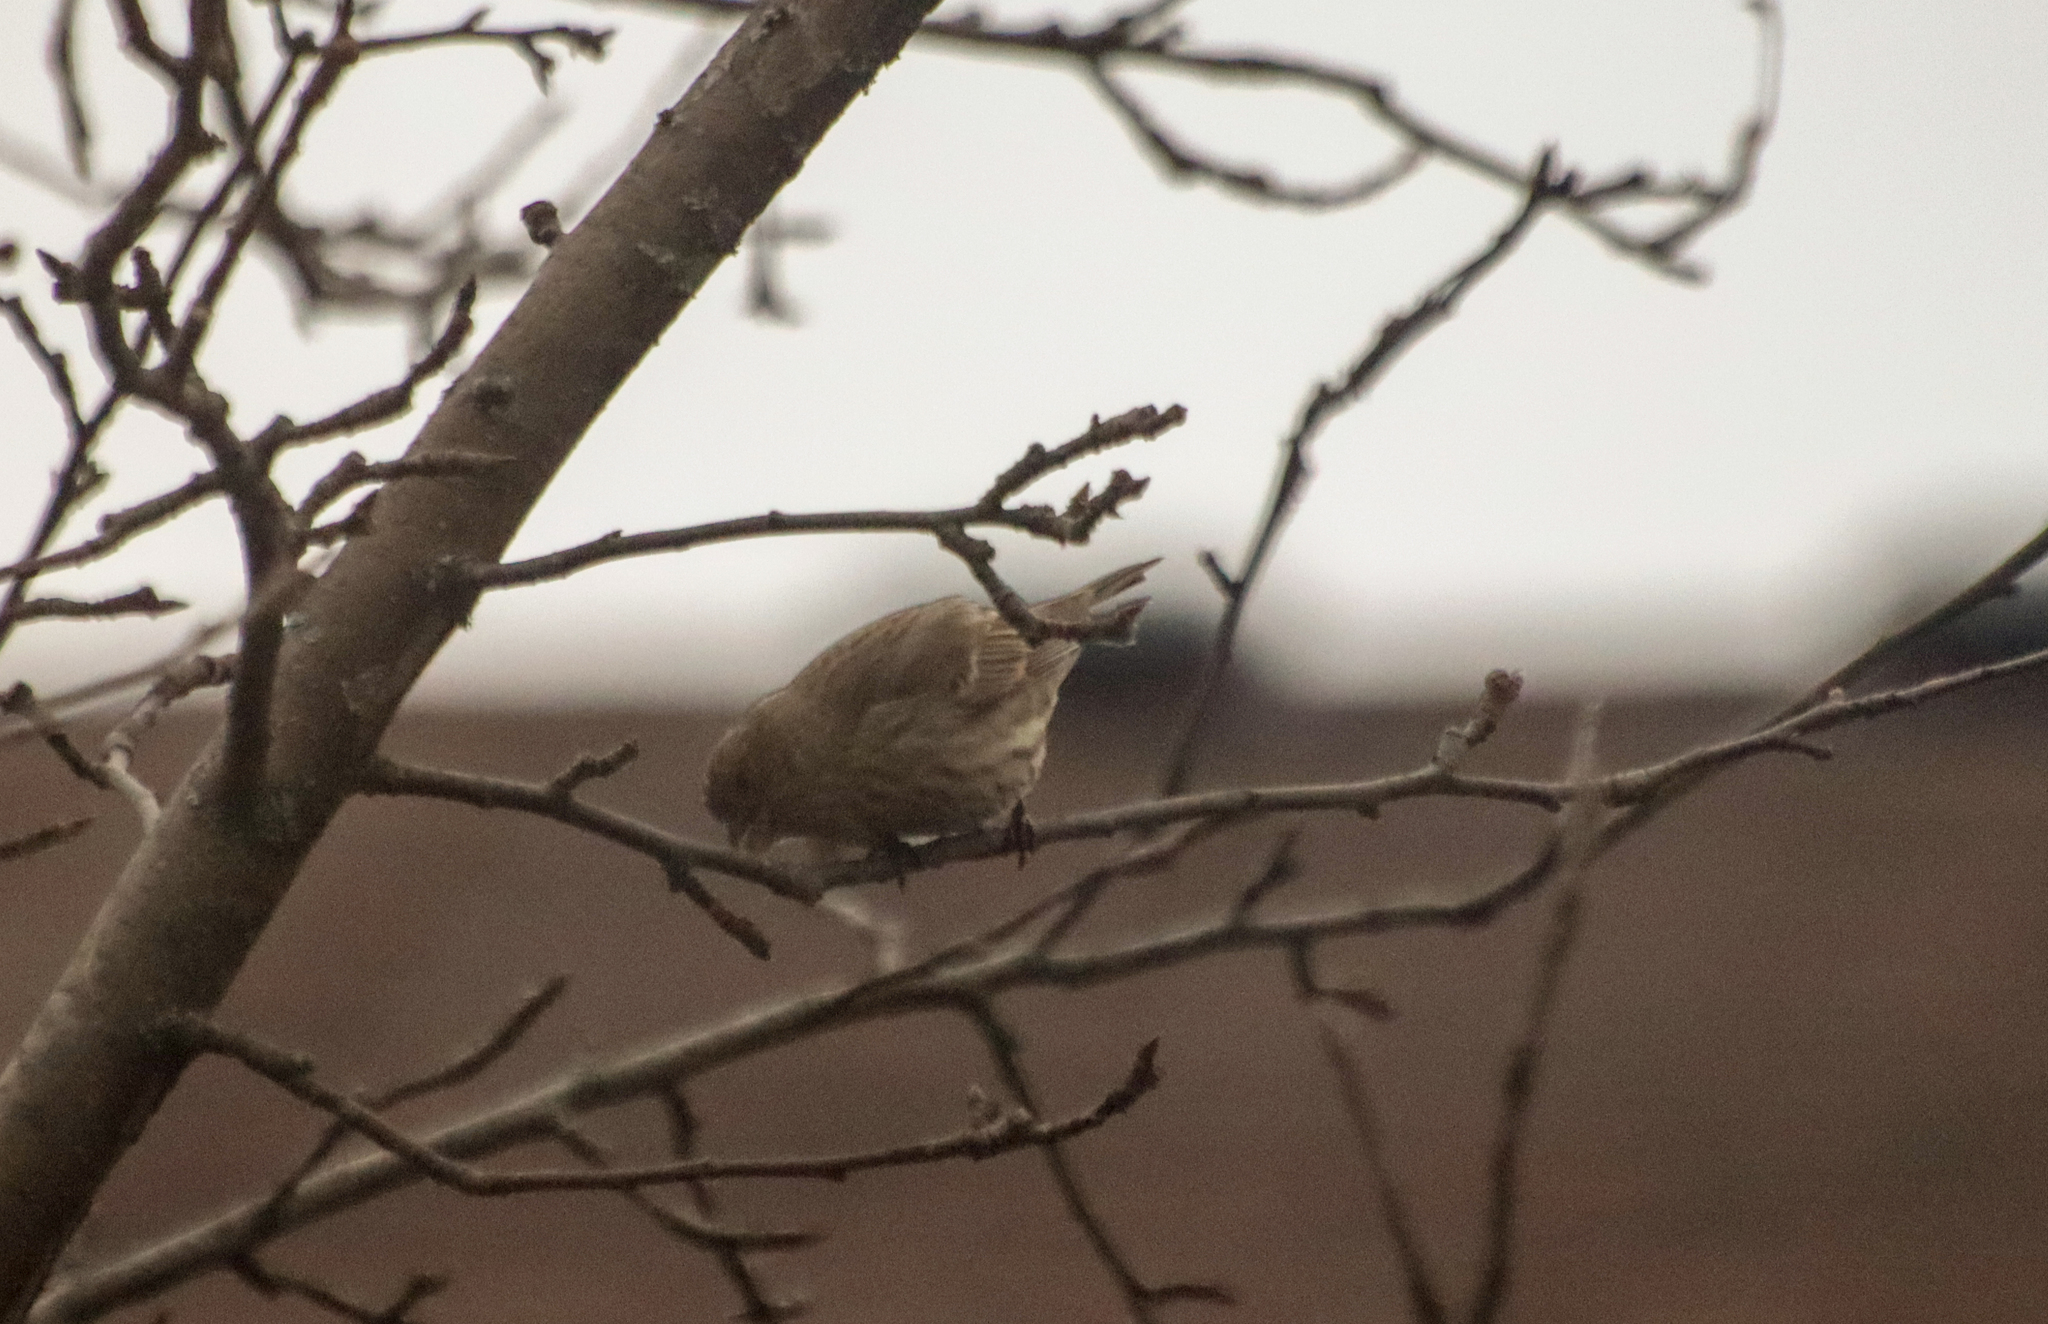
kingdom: Animalia
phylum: Chordata
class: Aves
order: Passeriformes
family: Fringillidae
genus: Haemorhous
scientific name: Haemorhous mexicanus
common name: House finch
